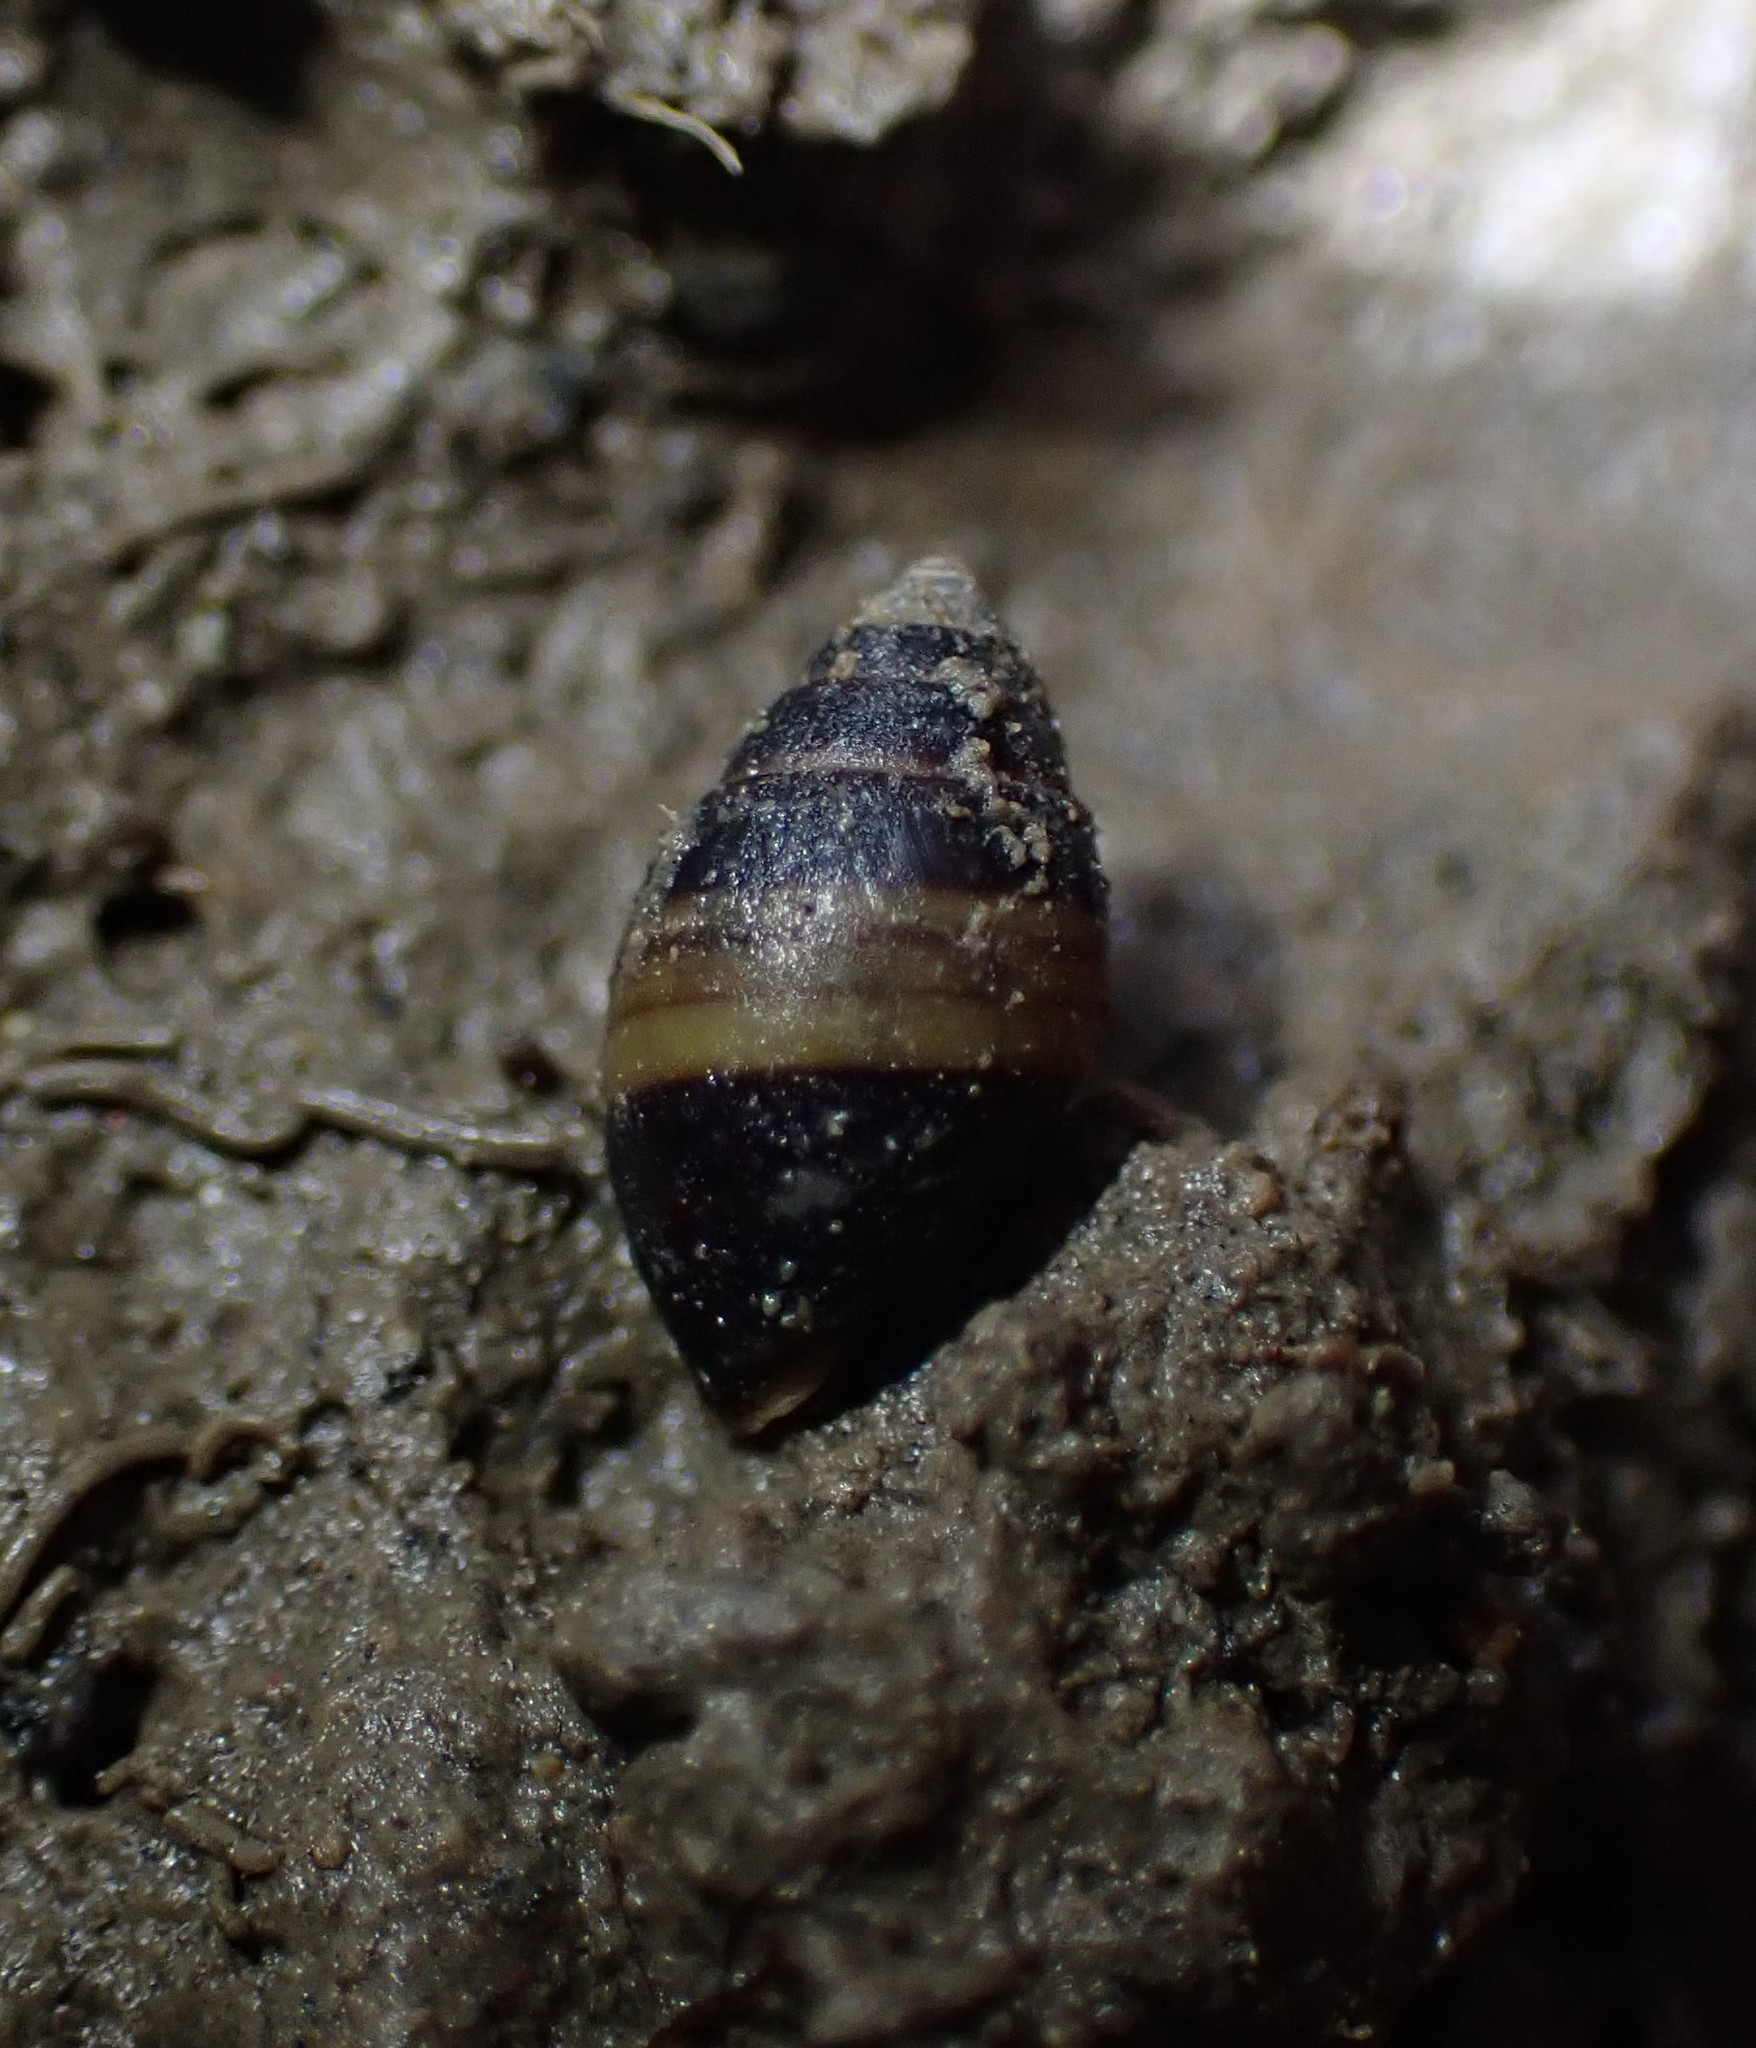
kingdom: Animalia
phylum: Mollusca
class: Gastropoda
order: Ellobiida
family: Ellobiidae
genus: Pleuroloba
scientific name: Pleuroloba costellaris
